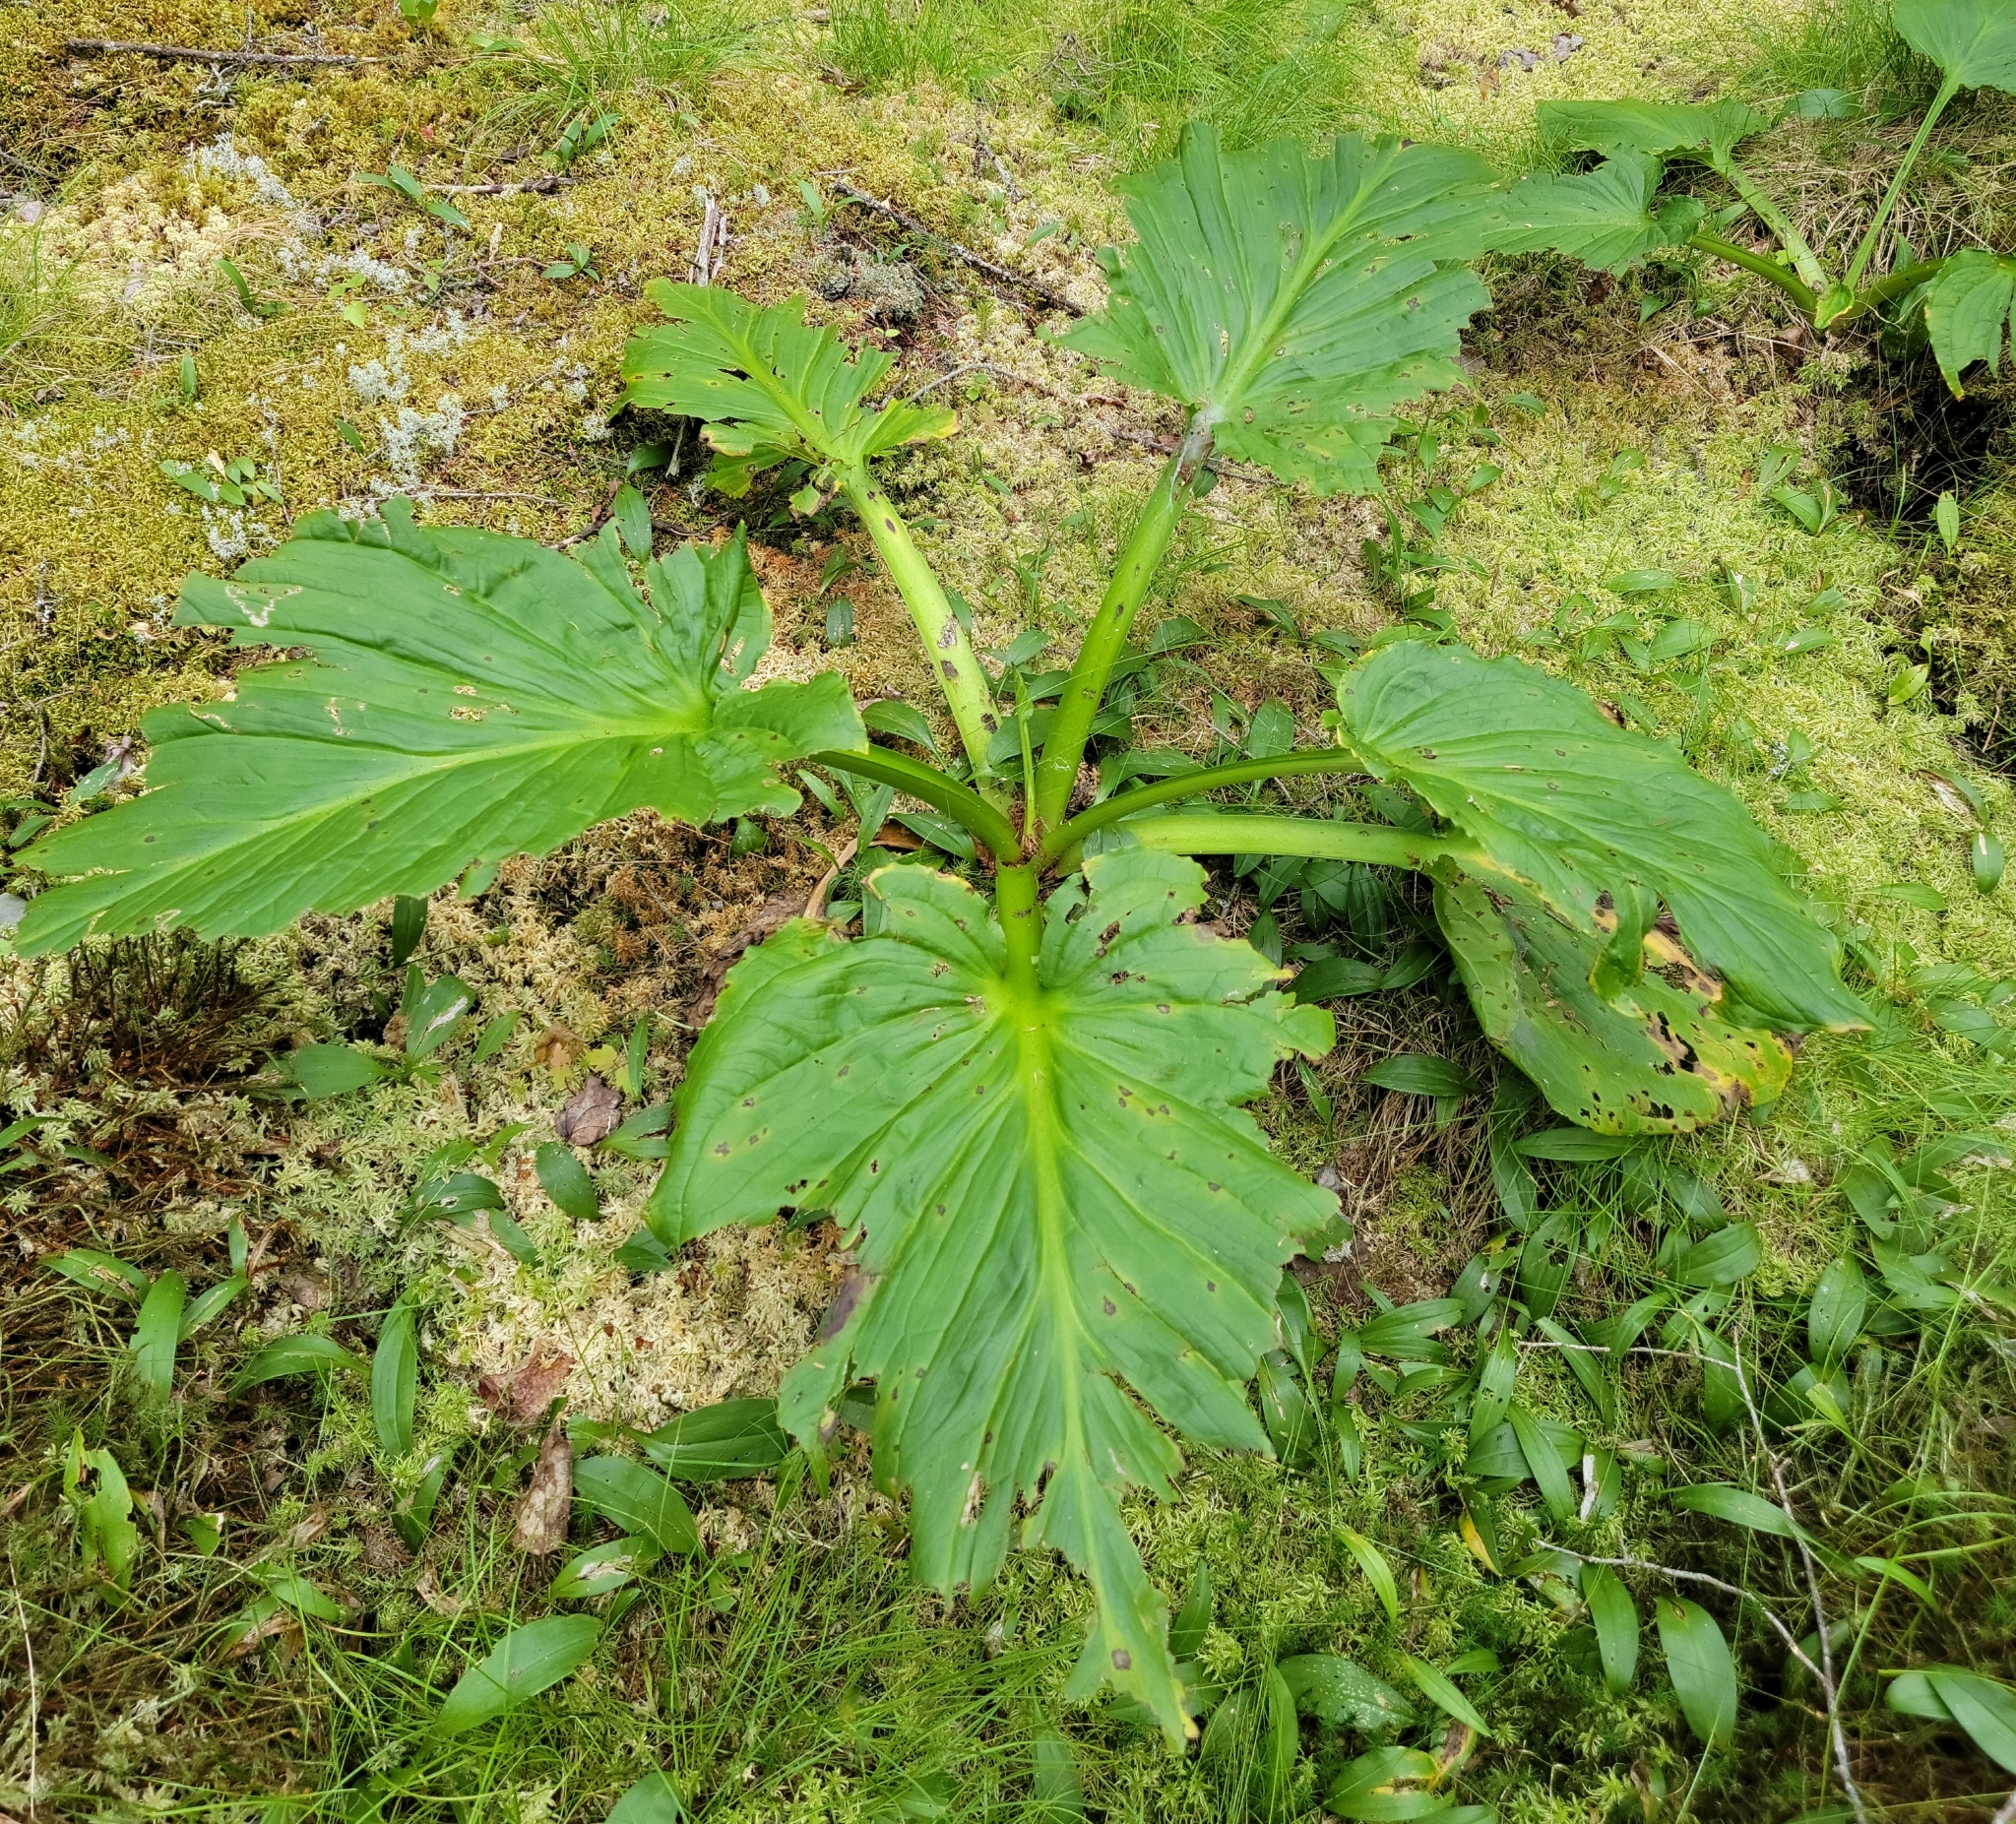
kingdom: Plantae
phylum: Tracheophyta
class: Liliopsida
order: Alismatales
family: Araceae
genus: Symplocarpus
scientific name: Symplocarpus foetidus
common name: Eastern skunk cabbage
